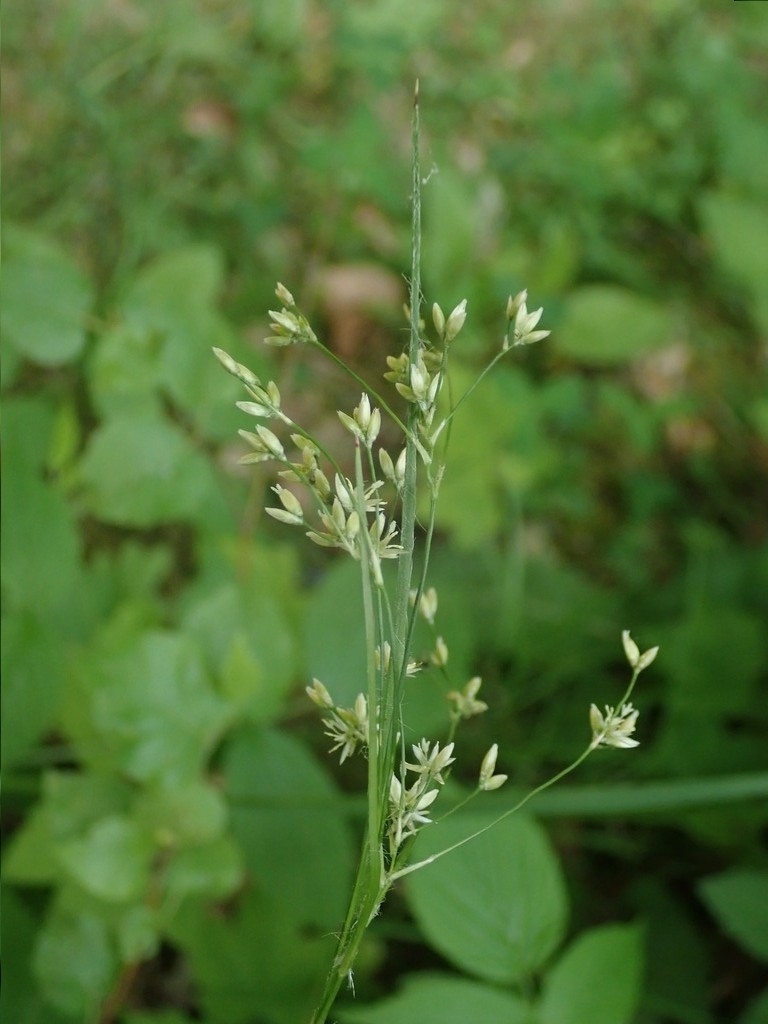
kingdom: Plantae
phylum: Tracheophyta
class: Liliopsida
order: Poales
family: Juncaceae
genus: Luzula
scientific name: Luzula luzuloides
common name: White wood-rush
